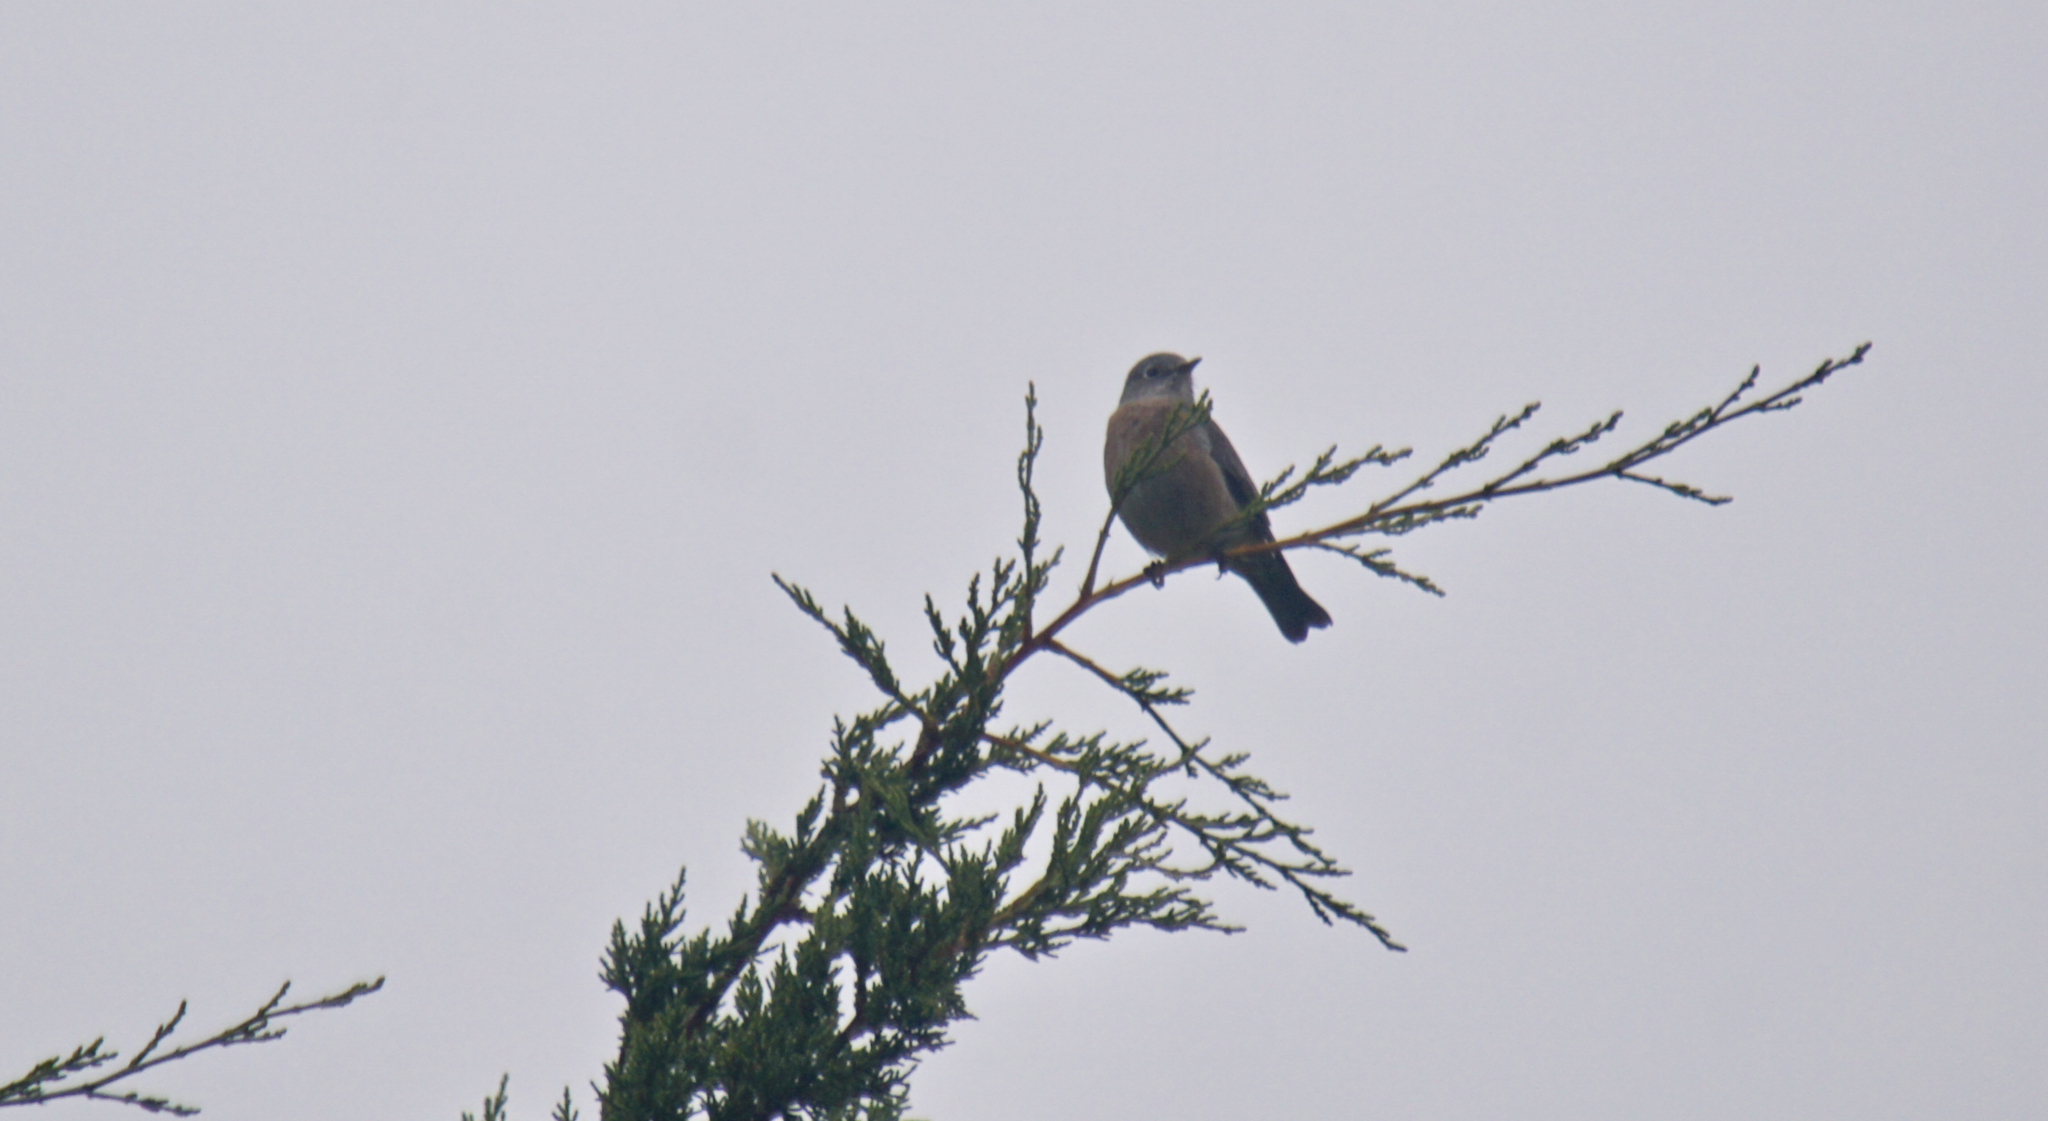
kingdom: Animalia
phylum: Chordata
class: Aves
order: Passeriformes
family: Turdidae
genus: Sialia
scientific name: Sialia mexicana
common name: Western bluebird
